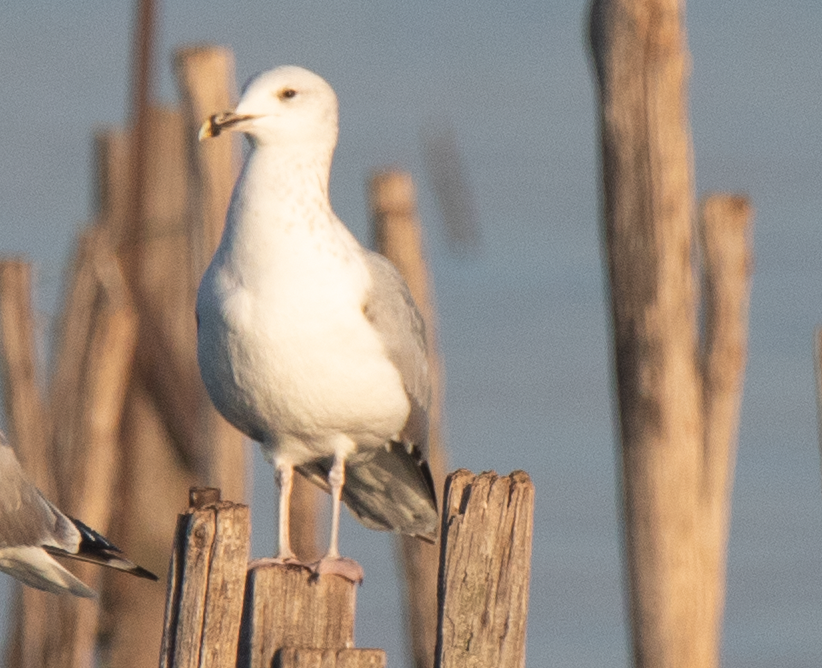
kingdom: Animalia
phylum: Chordata
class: Aves
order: Charadriiformes
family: Laridae
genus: Larus
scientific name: Larus cachinnans
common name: Caspian gull
